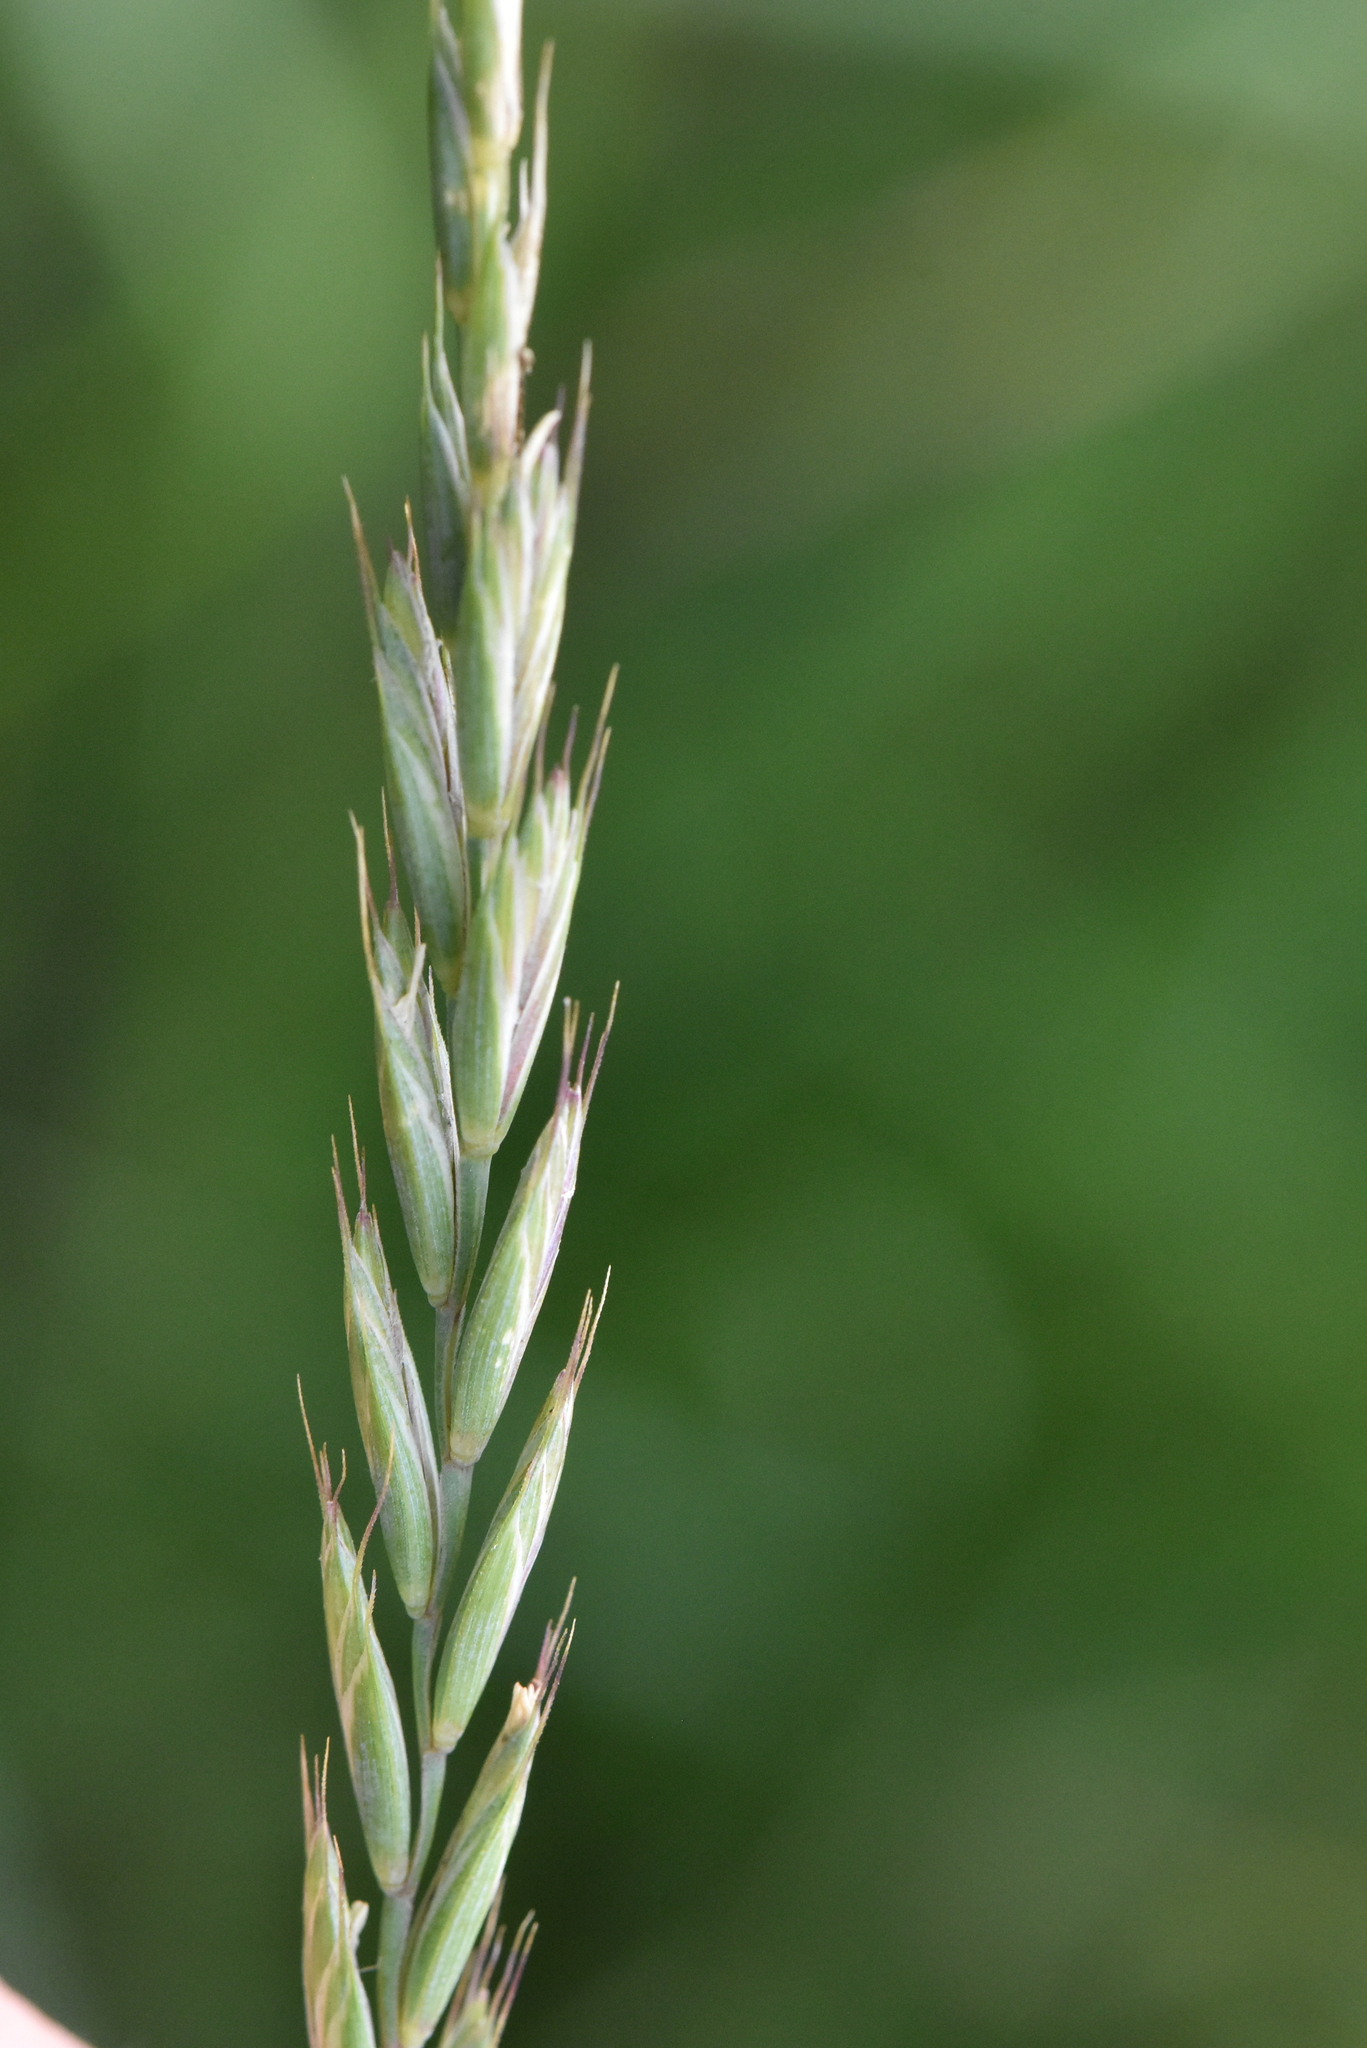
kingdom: Plantae
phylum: Tracheophyta
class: Liliopsida
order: Poales
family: Poaceae
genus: Elymus
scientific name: Elymus repens
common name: Quackgrass
